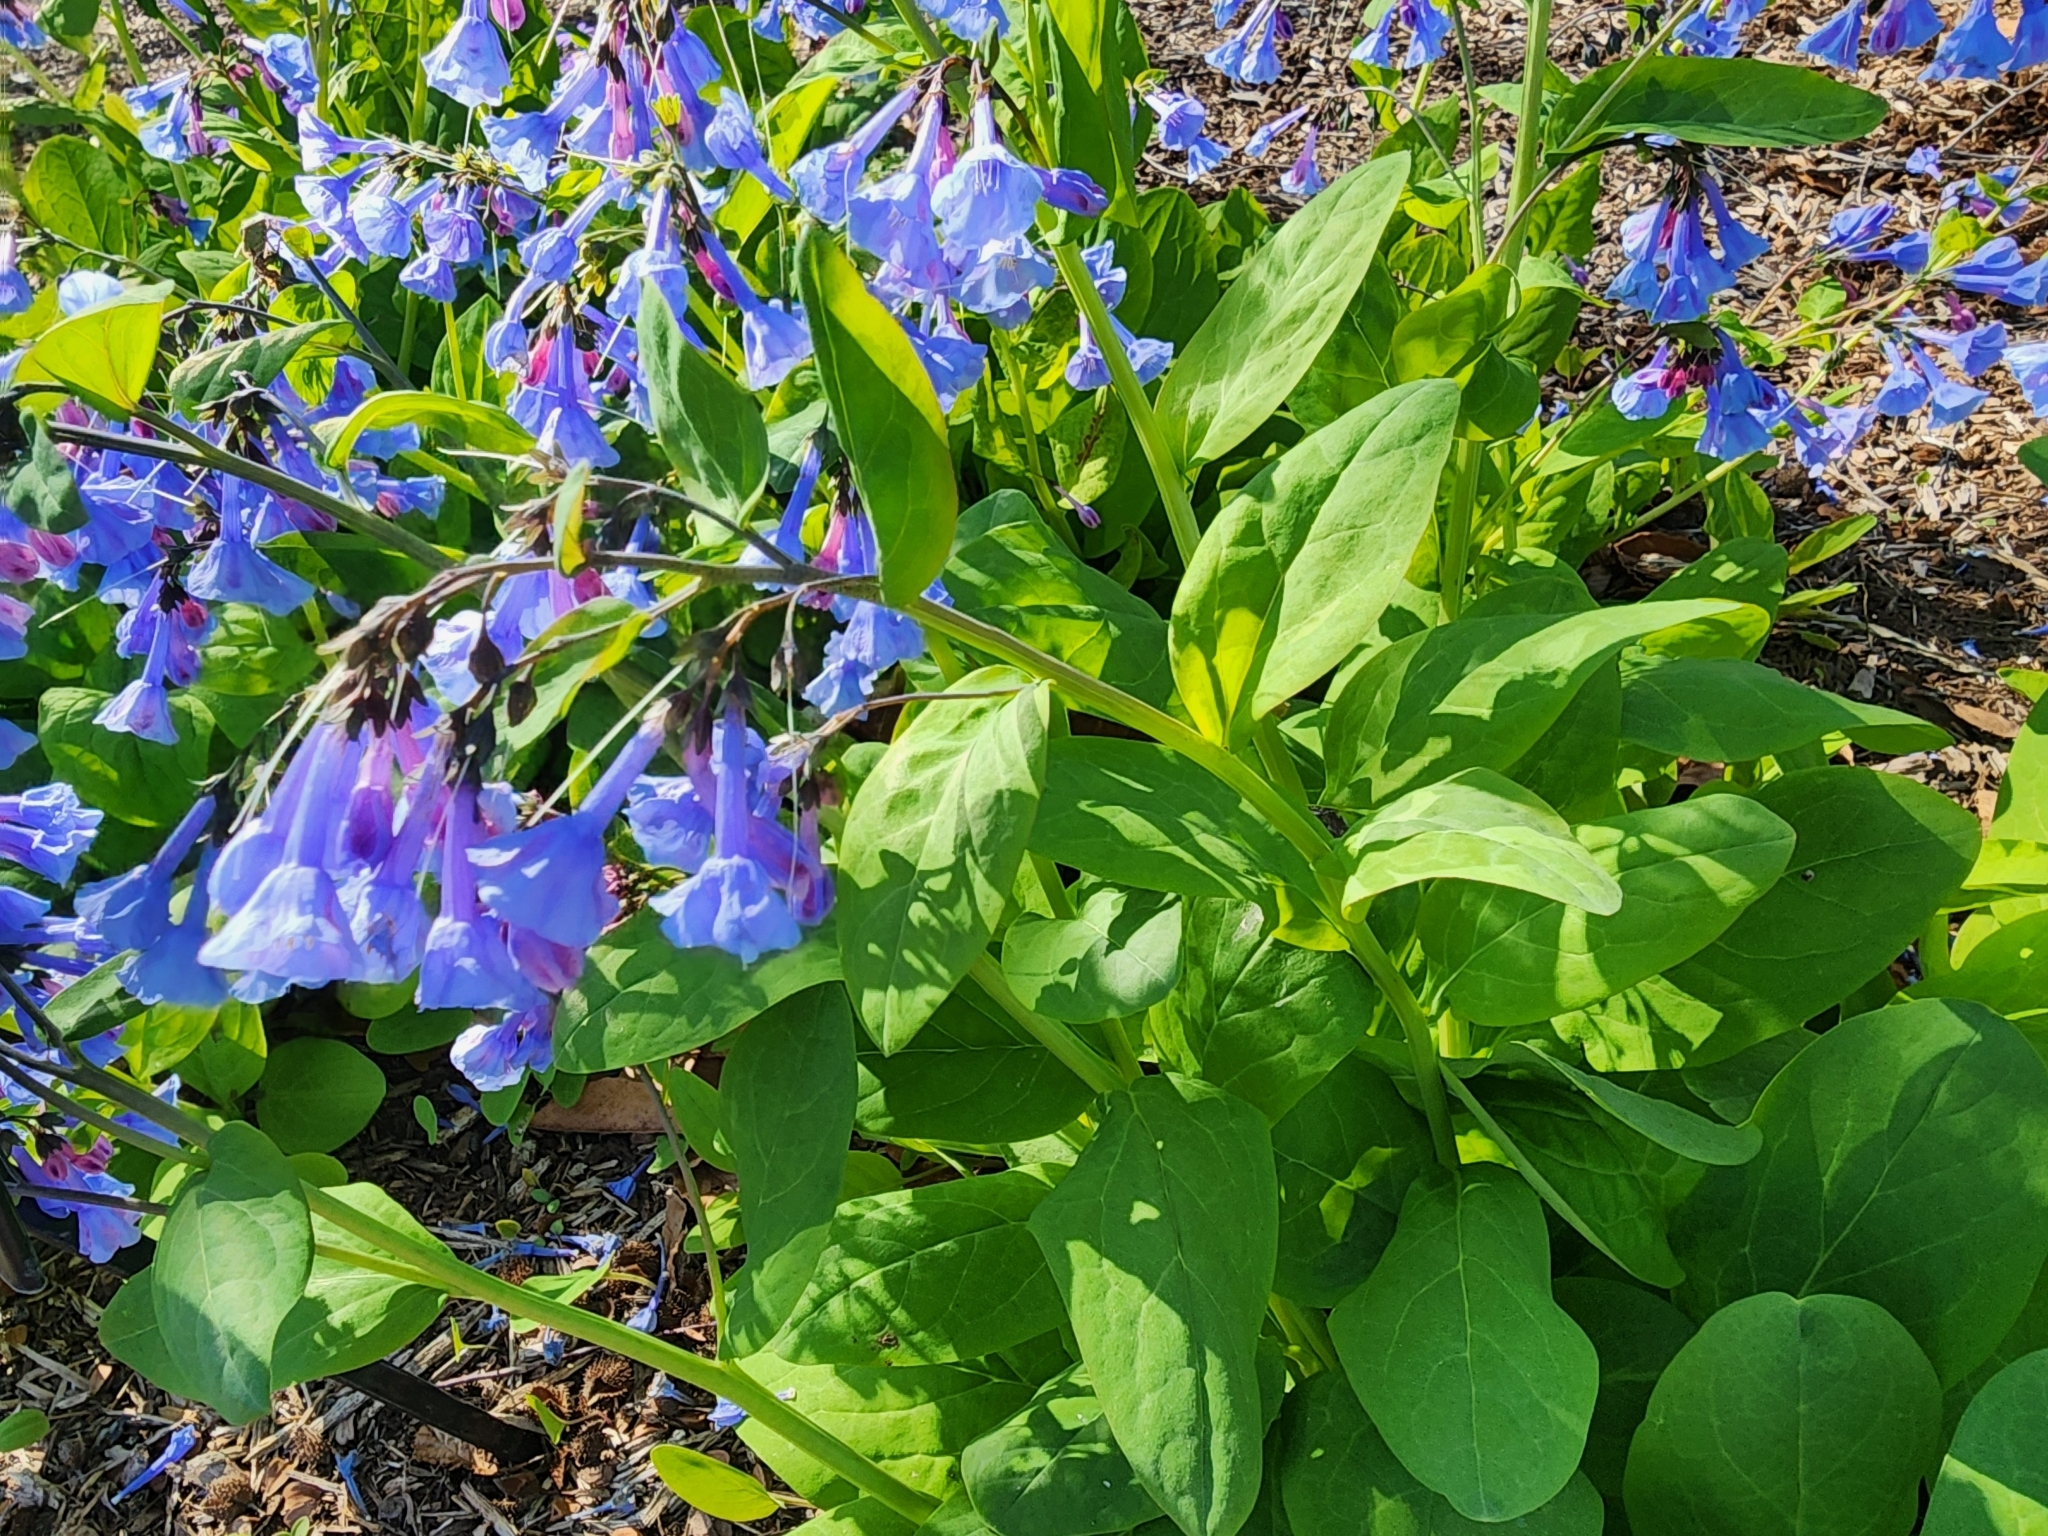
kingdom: Plantae
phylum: Tracheophyta
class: Magnoliopsida
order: Boraginales
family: Boraginaceae
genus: Mertensia
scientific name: Mertensia virginica
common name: Virginia bluebells
